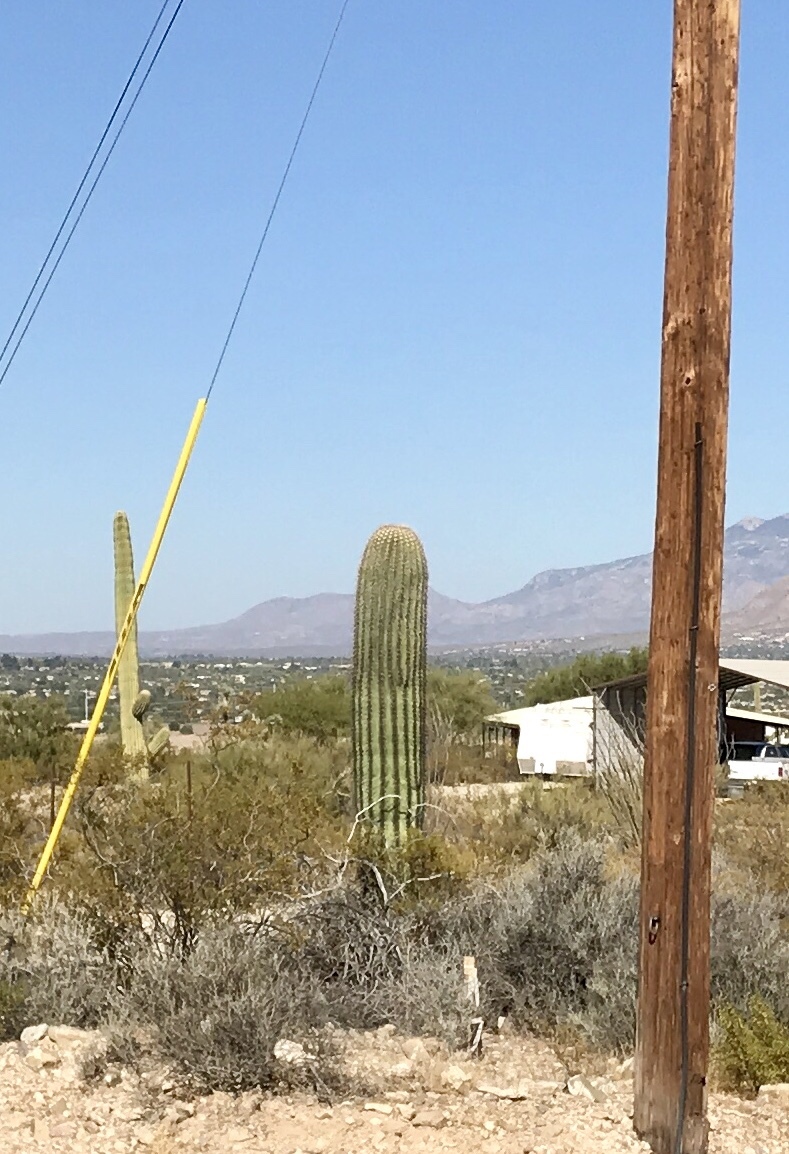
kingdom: Plantae
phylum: Tracheophyta
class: Magnoliopsida
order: Caryophyllales
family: Cactaceae
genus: Carnegiea
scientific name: Carnegiea gigantea
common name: Saguaro
